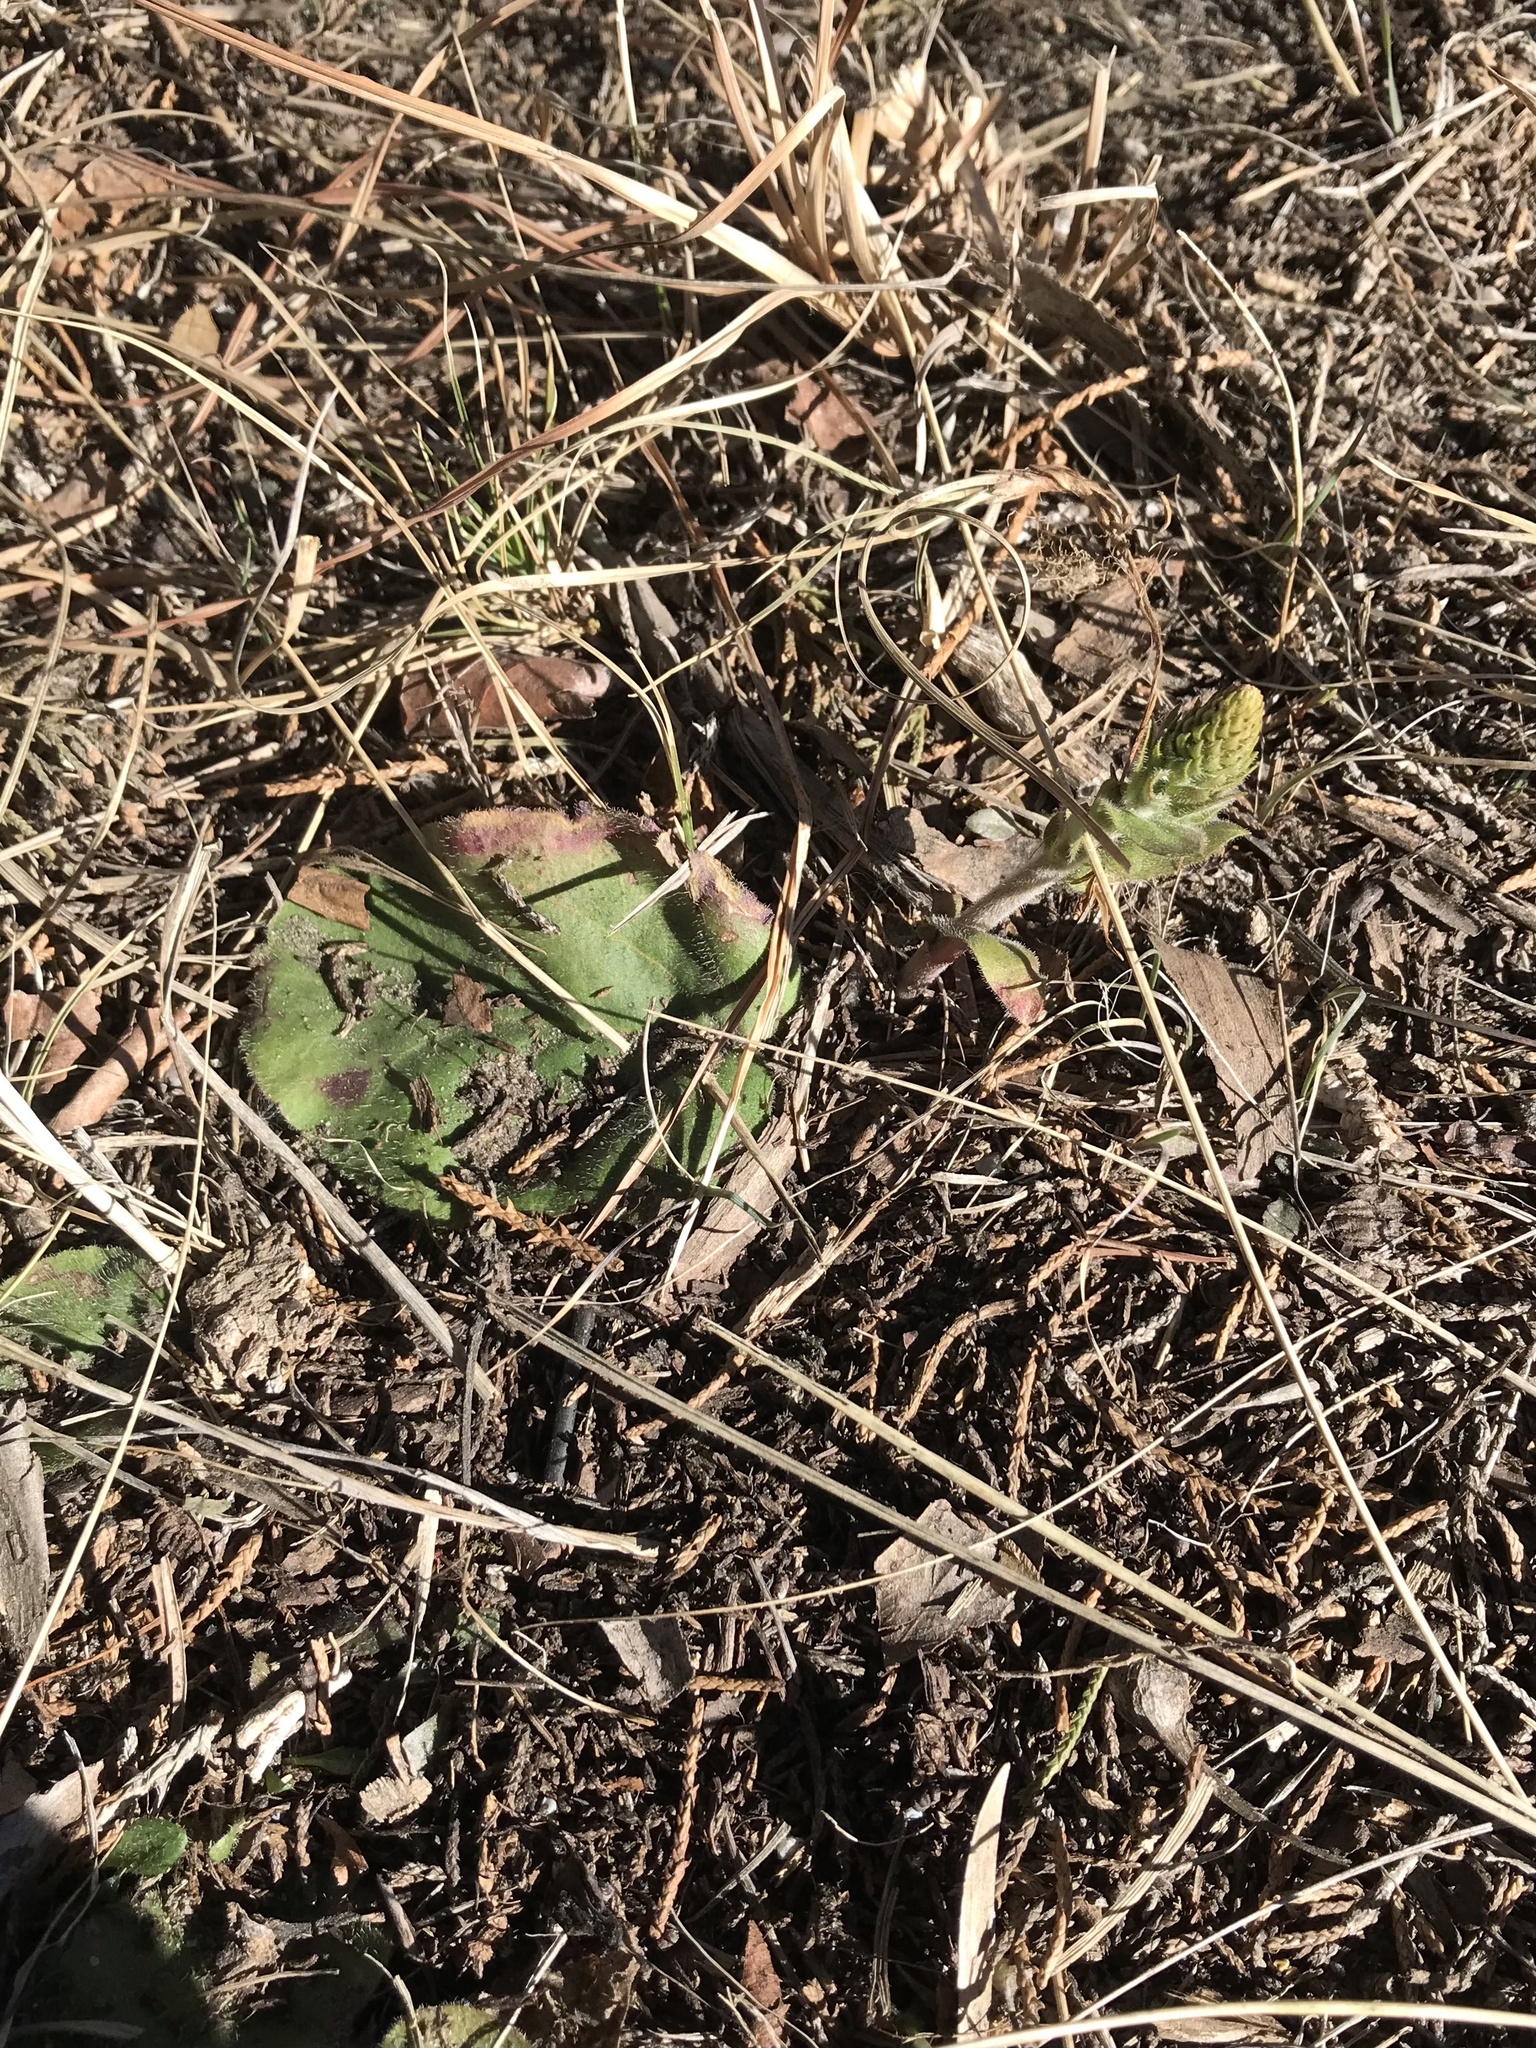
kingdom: Plantae
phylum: Tracheophyta
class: Magnoliopsida
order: Lamiales
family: Plantaginaceae
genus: Synthyris
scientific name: Synthyris bullii
